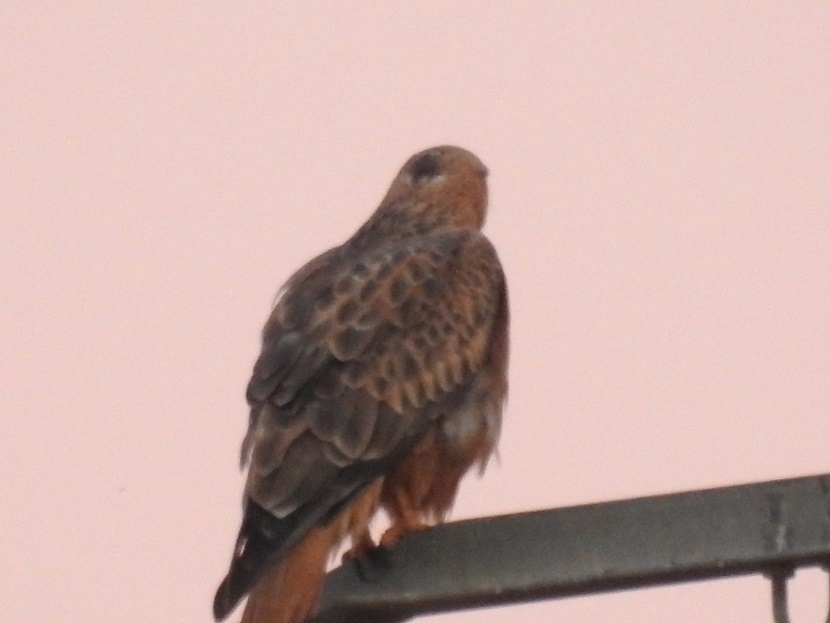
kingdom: Animalia
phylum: Chordata
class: Aves
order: Accipitriformes
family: Accipitridae
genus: Buteo
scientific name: Buteo rufinus
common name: Long-legged buzzard
